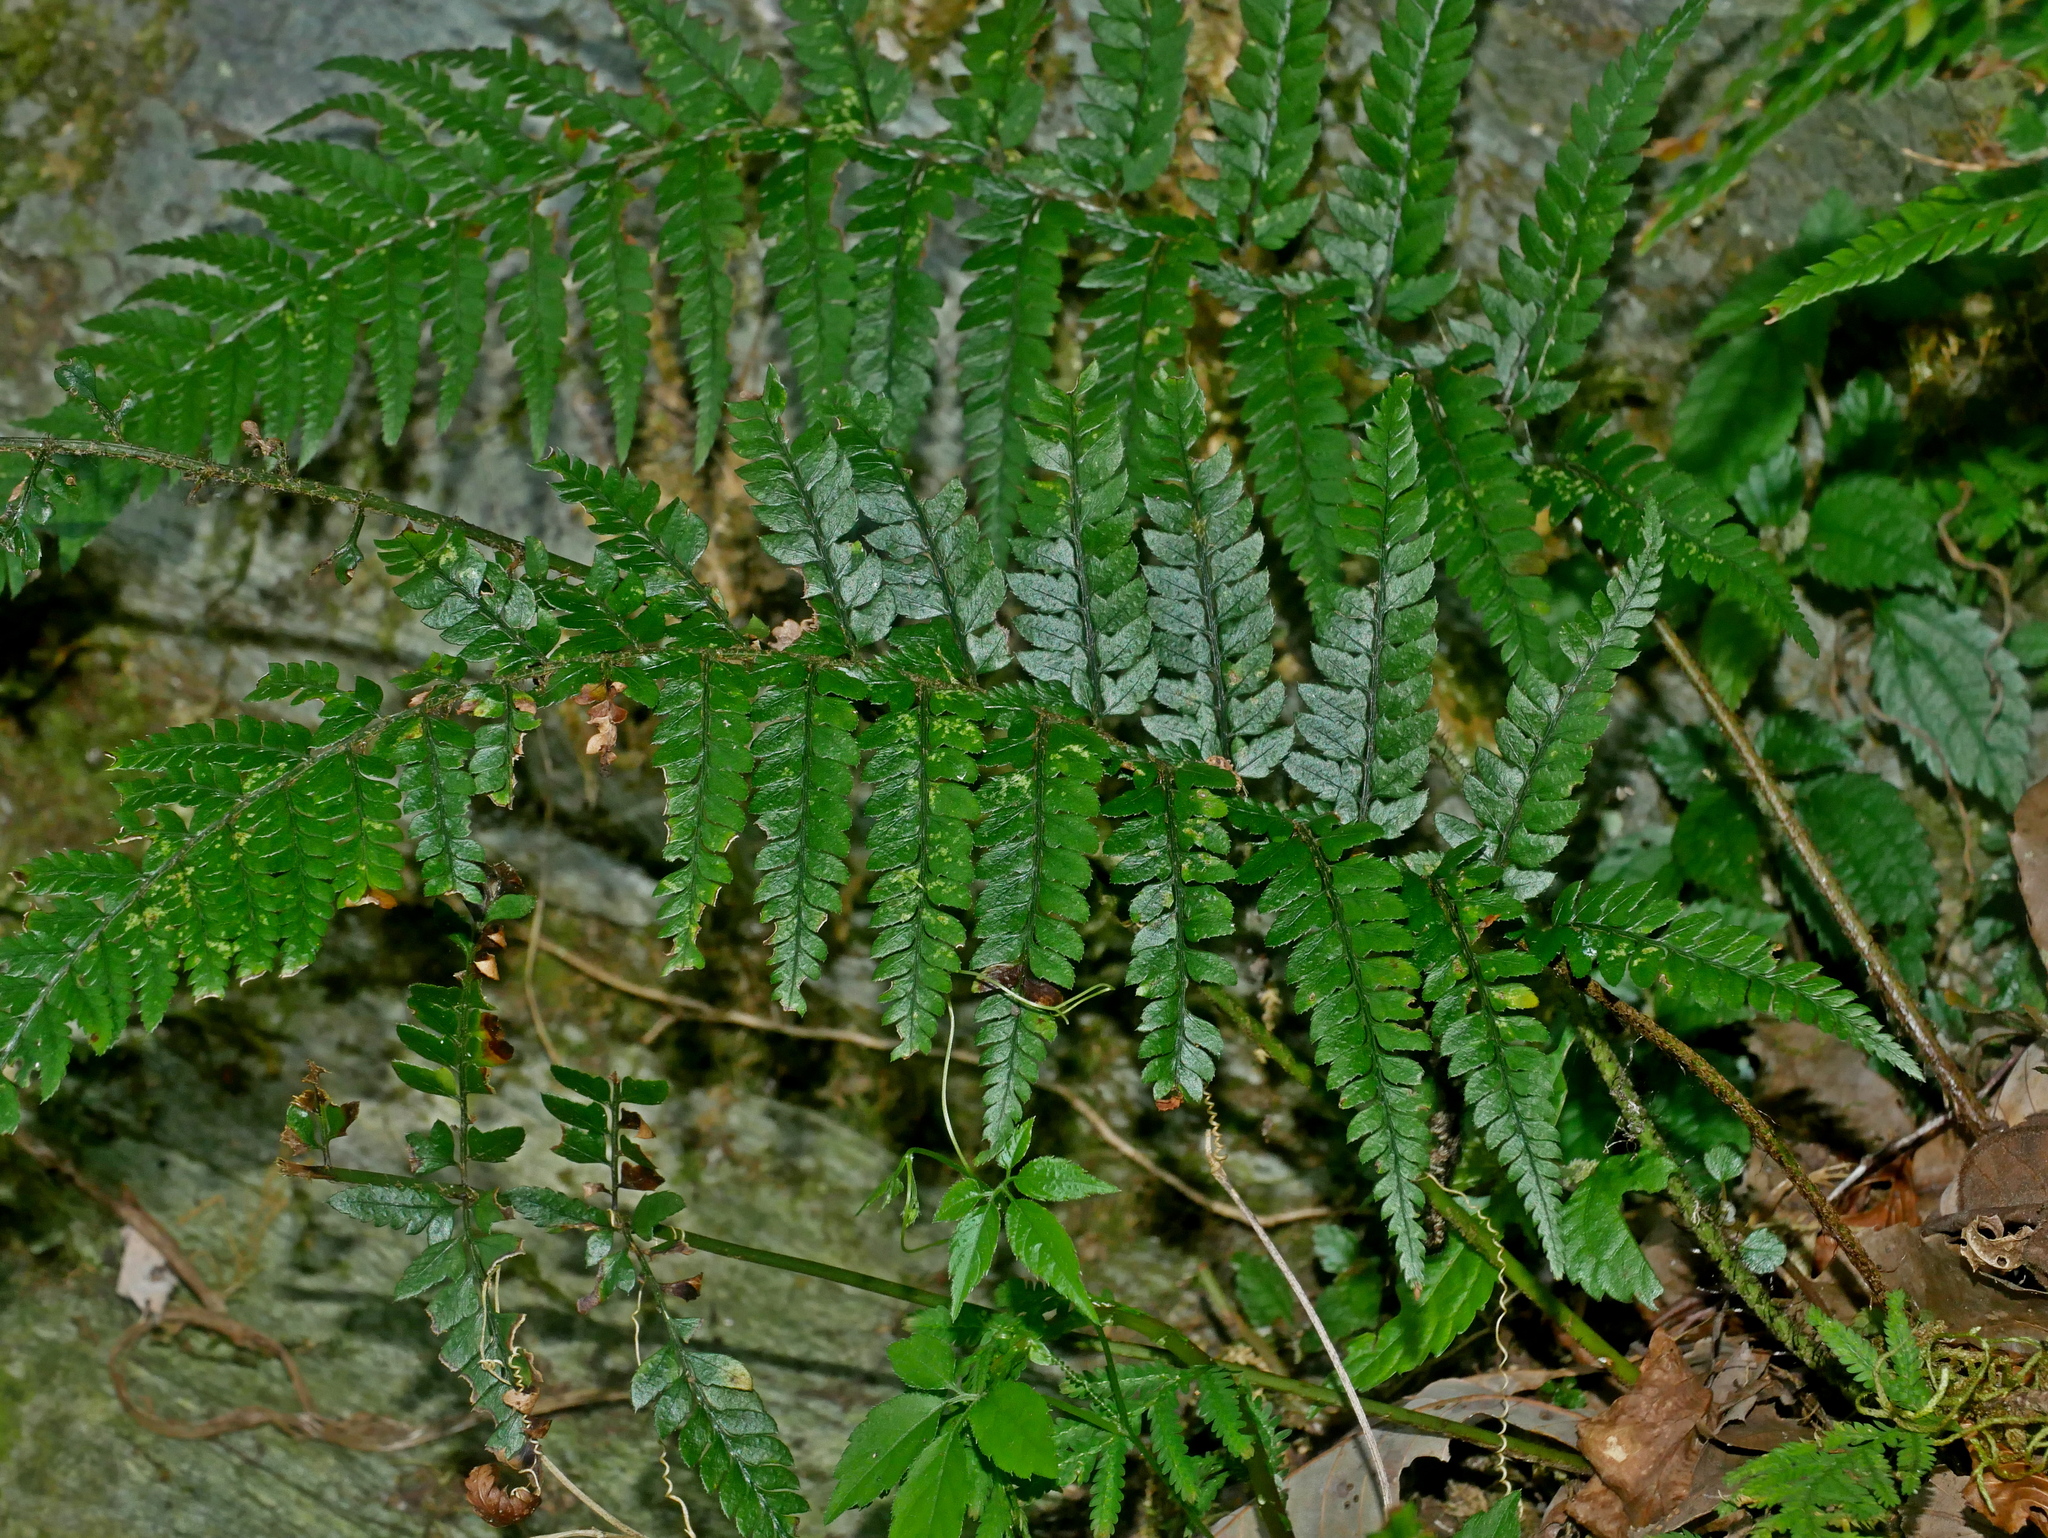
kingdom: Plantae
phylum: Tracheophyta
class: Polypodiopsida
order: Polypodiales
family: Dryopteridaceae
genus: Polystichum
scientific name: Polystichum luctuosum
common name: Korean rockfern
